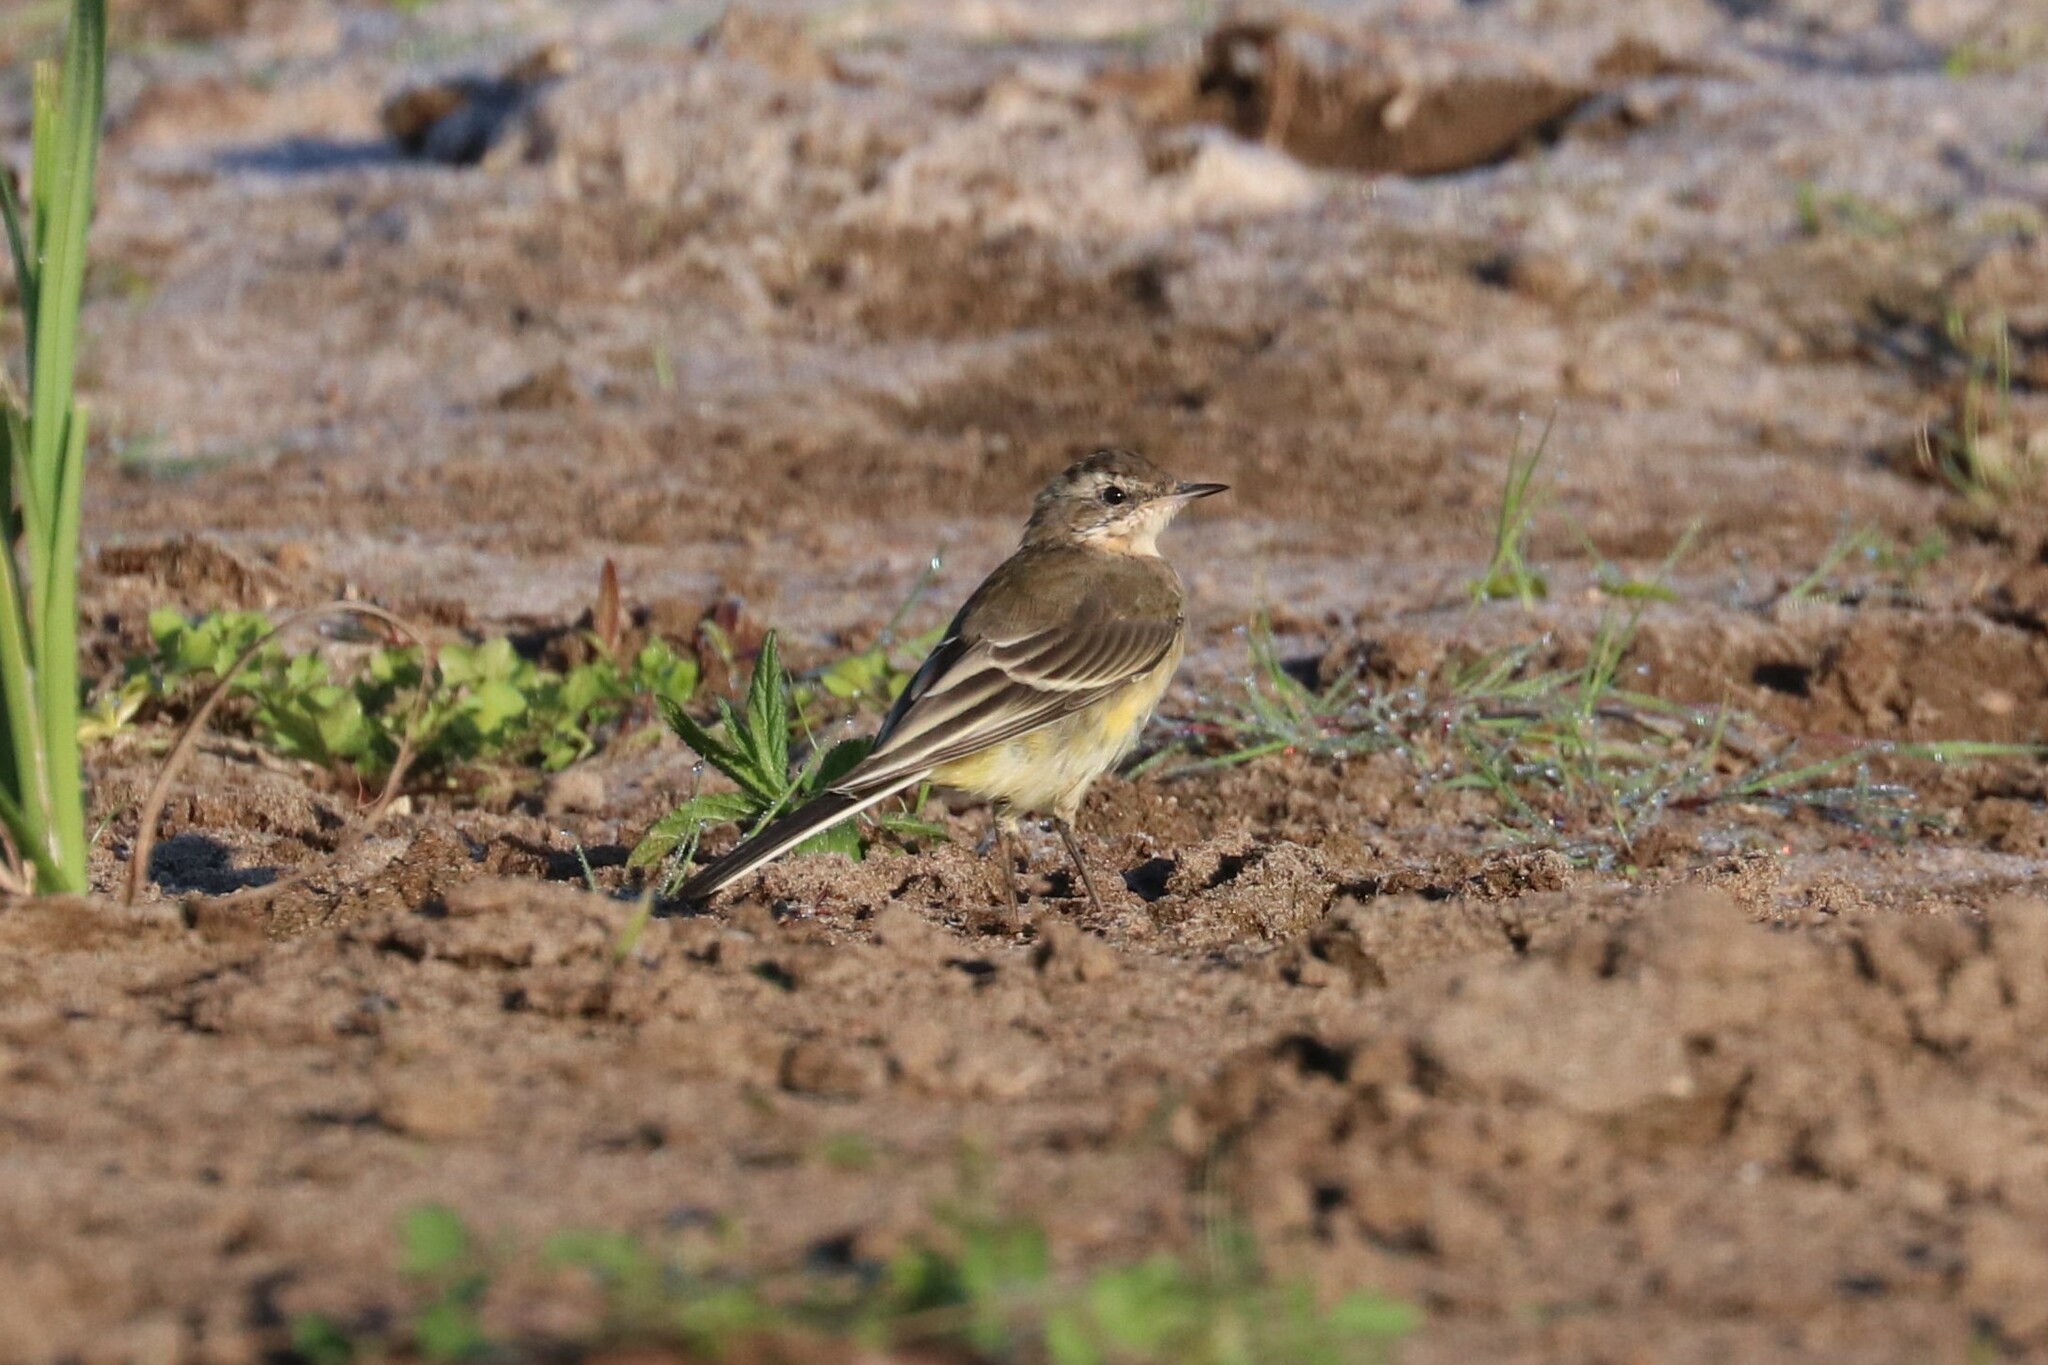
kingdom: Animalia
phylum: Chordata
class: Aves
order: Passeriformes
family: Motacillidae
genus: Motacilla
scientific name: Motacilla flava
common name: Western yellow wagtail
